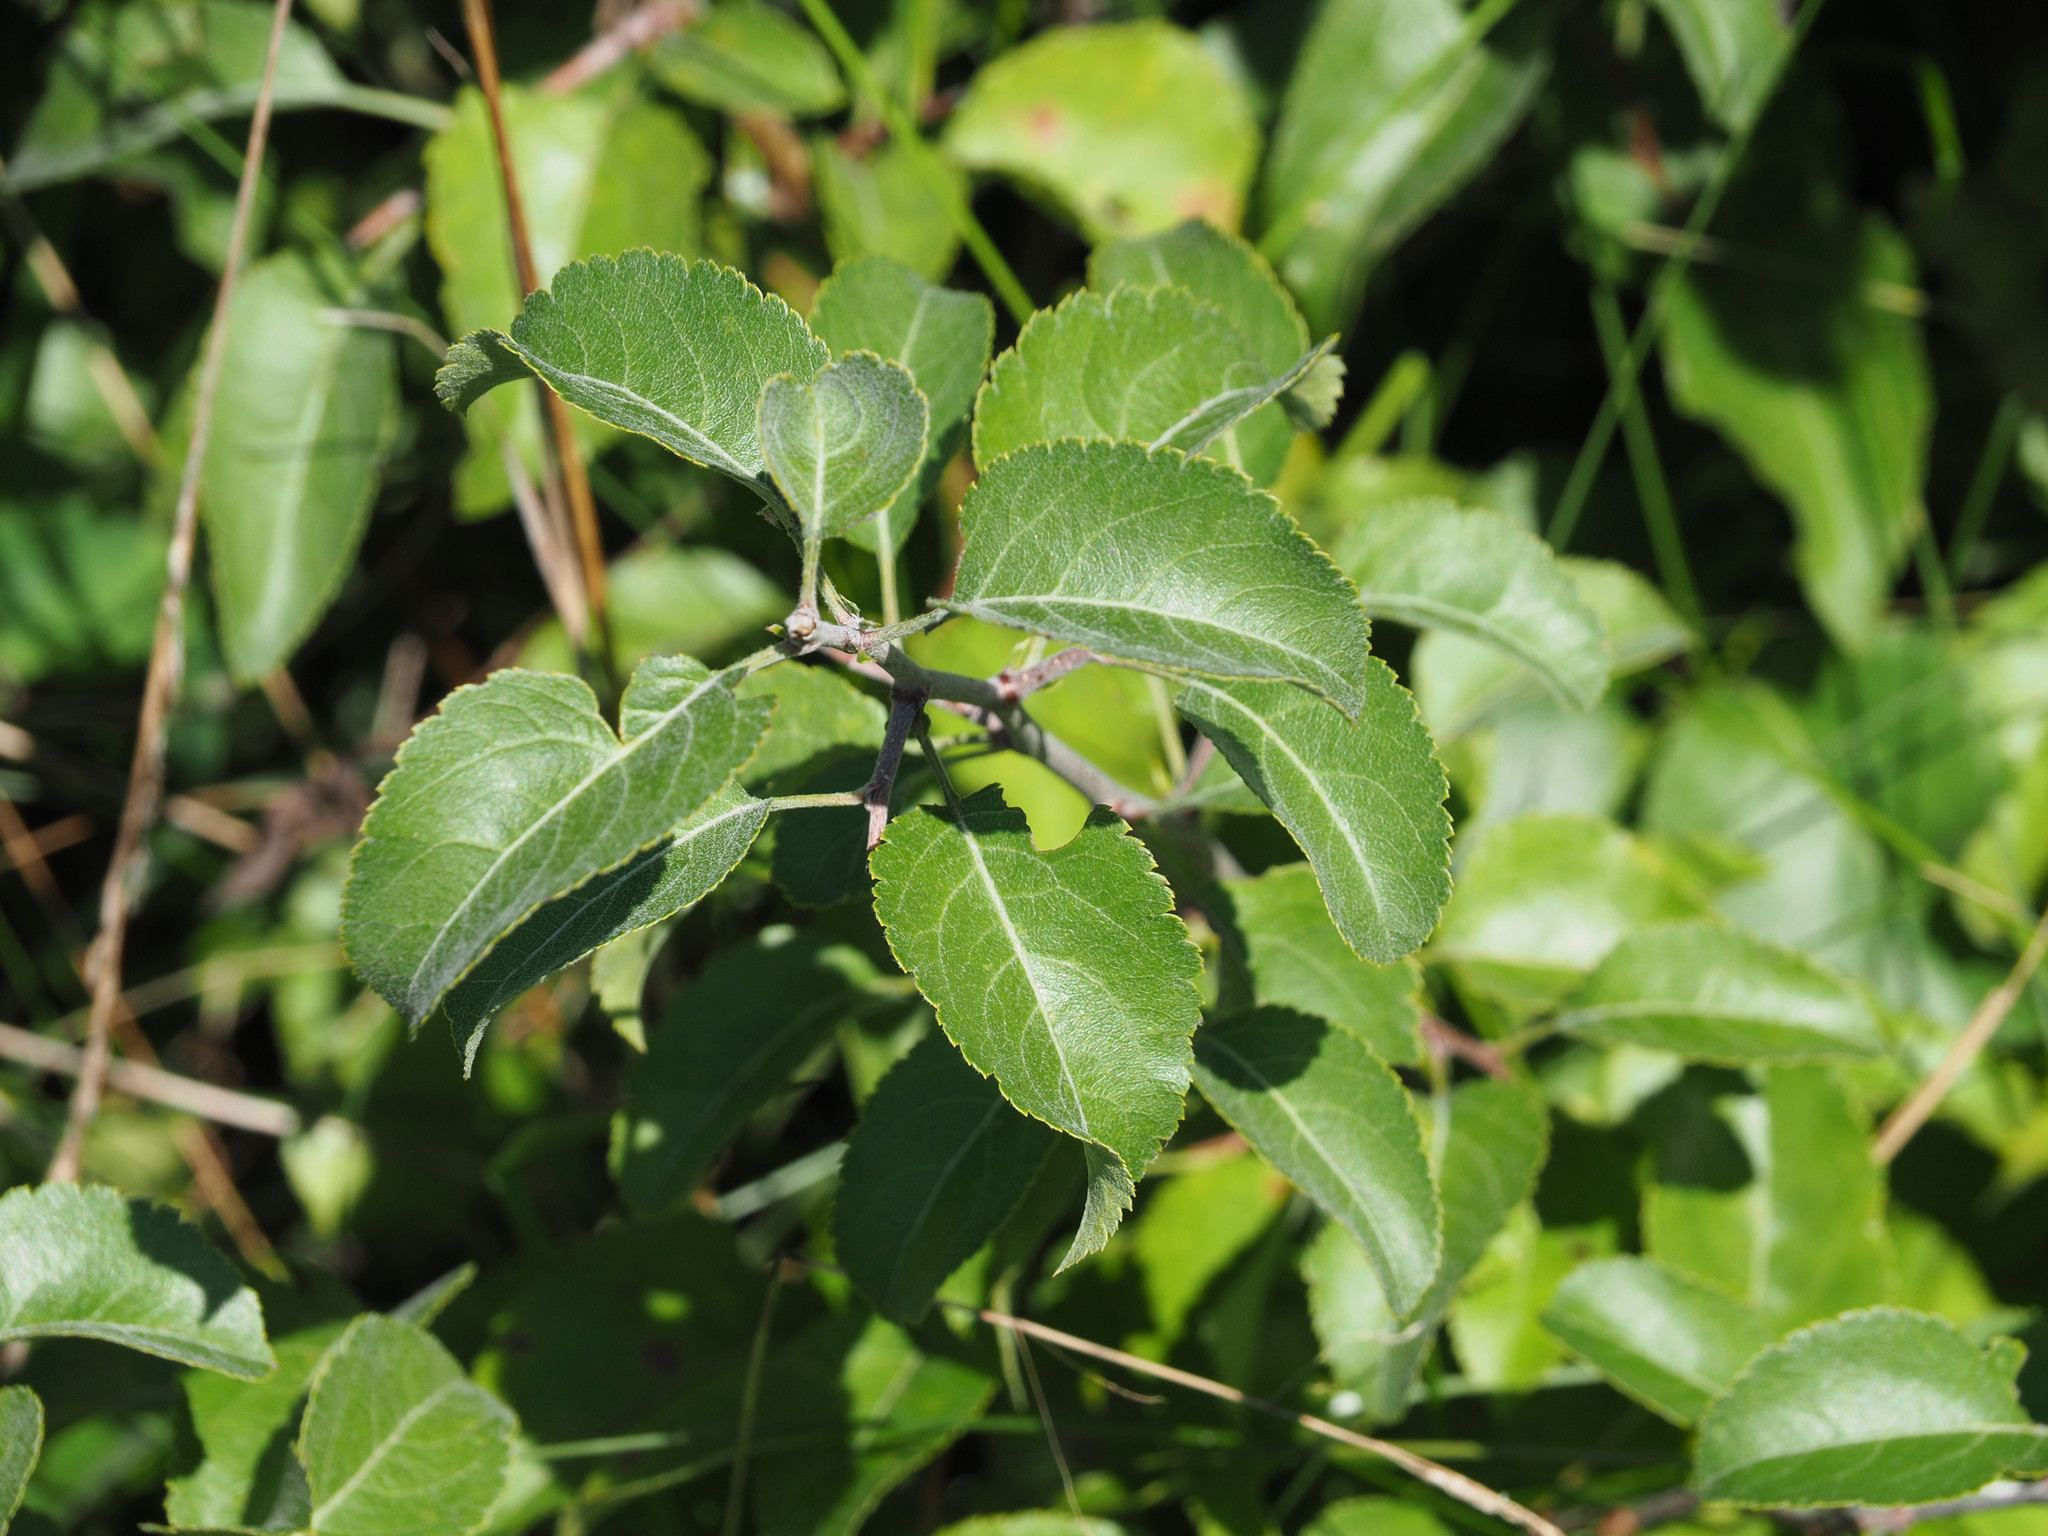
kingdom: Plantae
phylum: Tracheophyta
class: Magnoliopsida
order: Rosales
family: Rosaceae
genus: Pyrus
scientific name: Pyrus calleryana
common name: Callery pear
